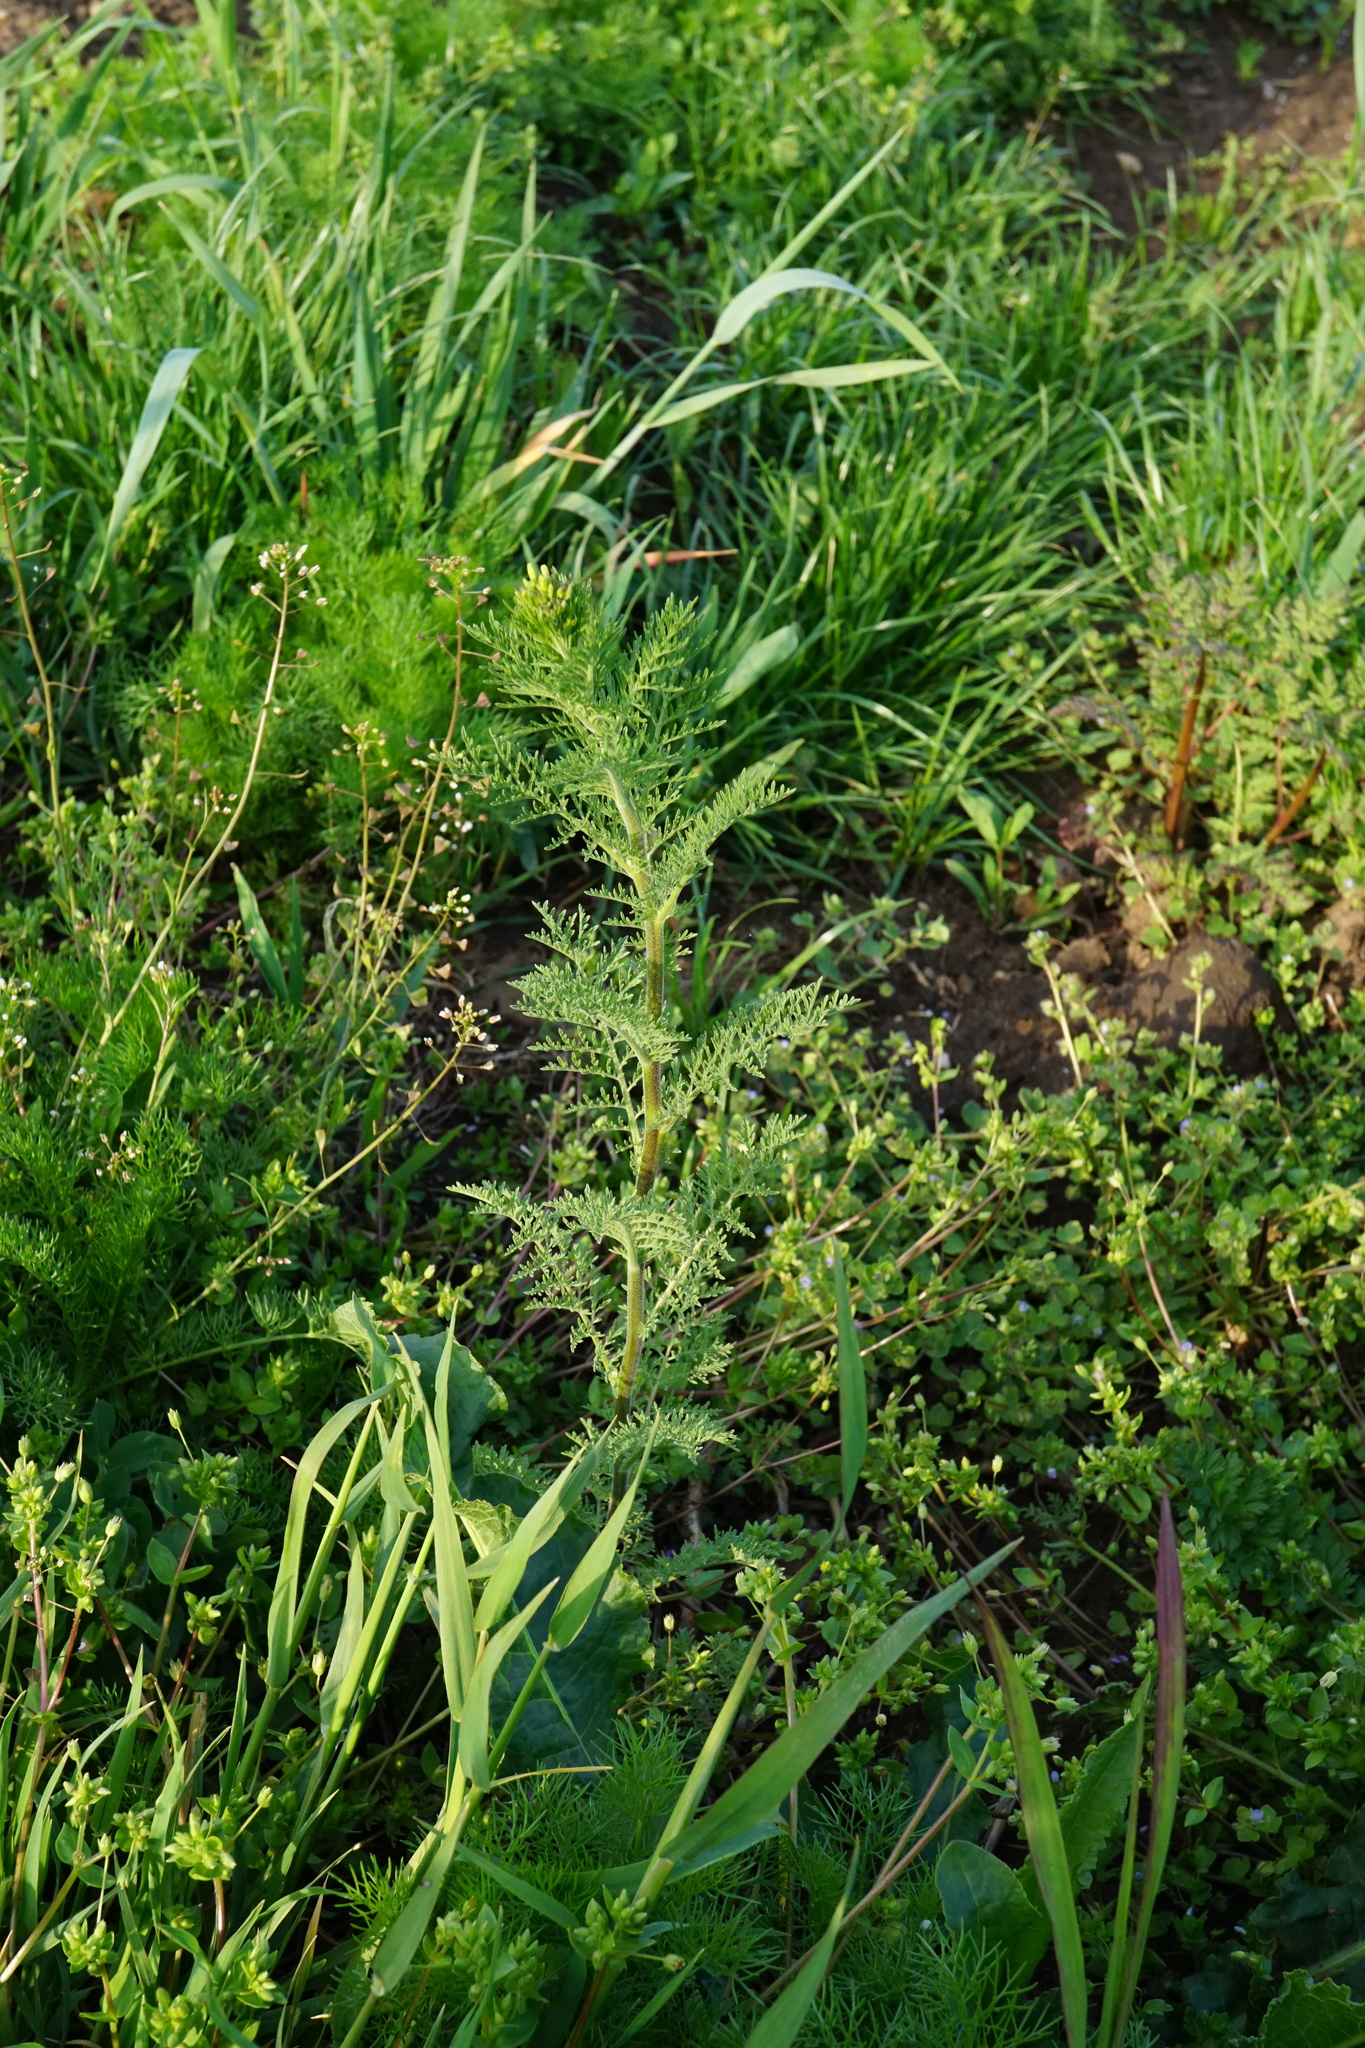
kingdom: Plantae
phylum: Tracheophyta
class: Magnoliopsida
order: Brassicales
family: Brassicaceae
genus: Descurainia
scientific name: Descurainia sophia
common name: Flixweed
